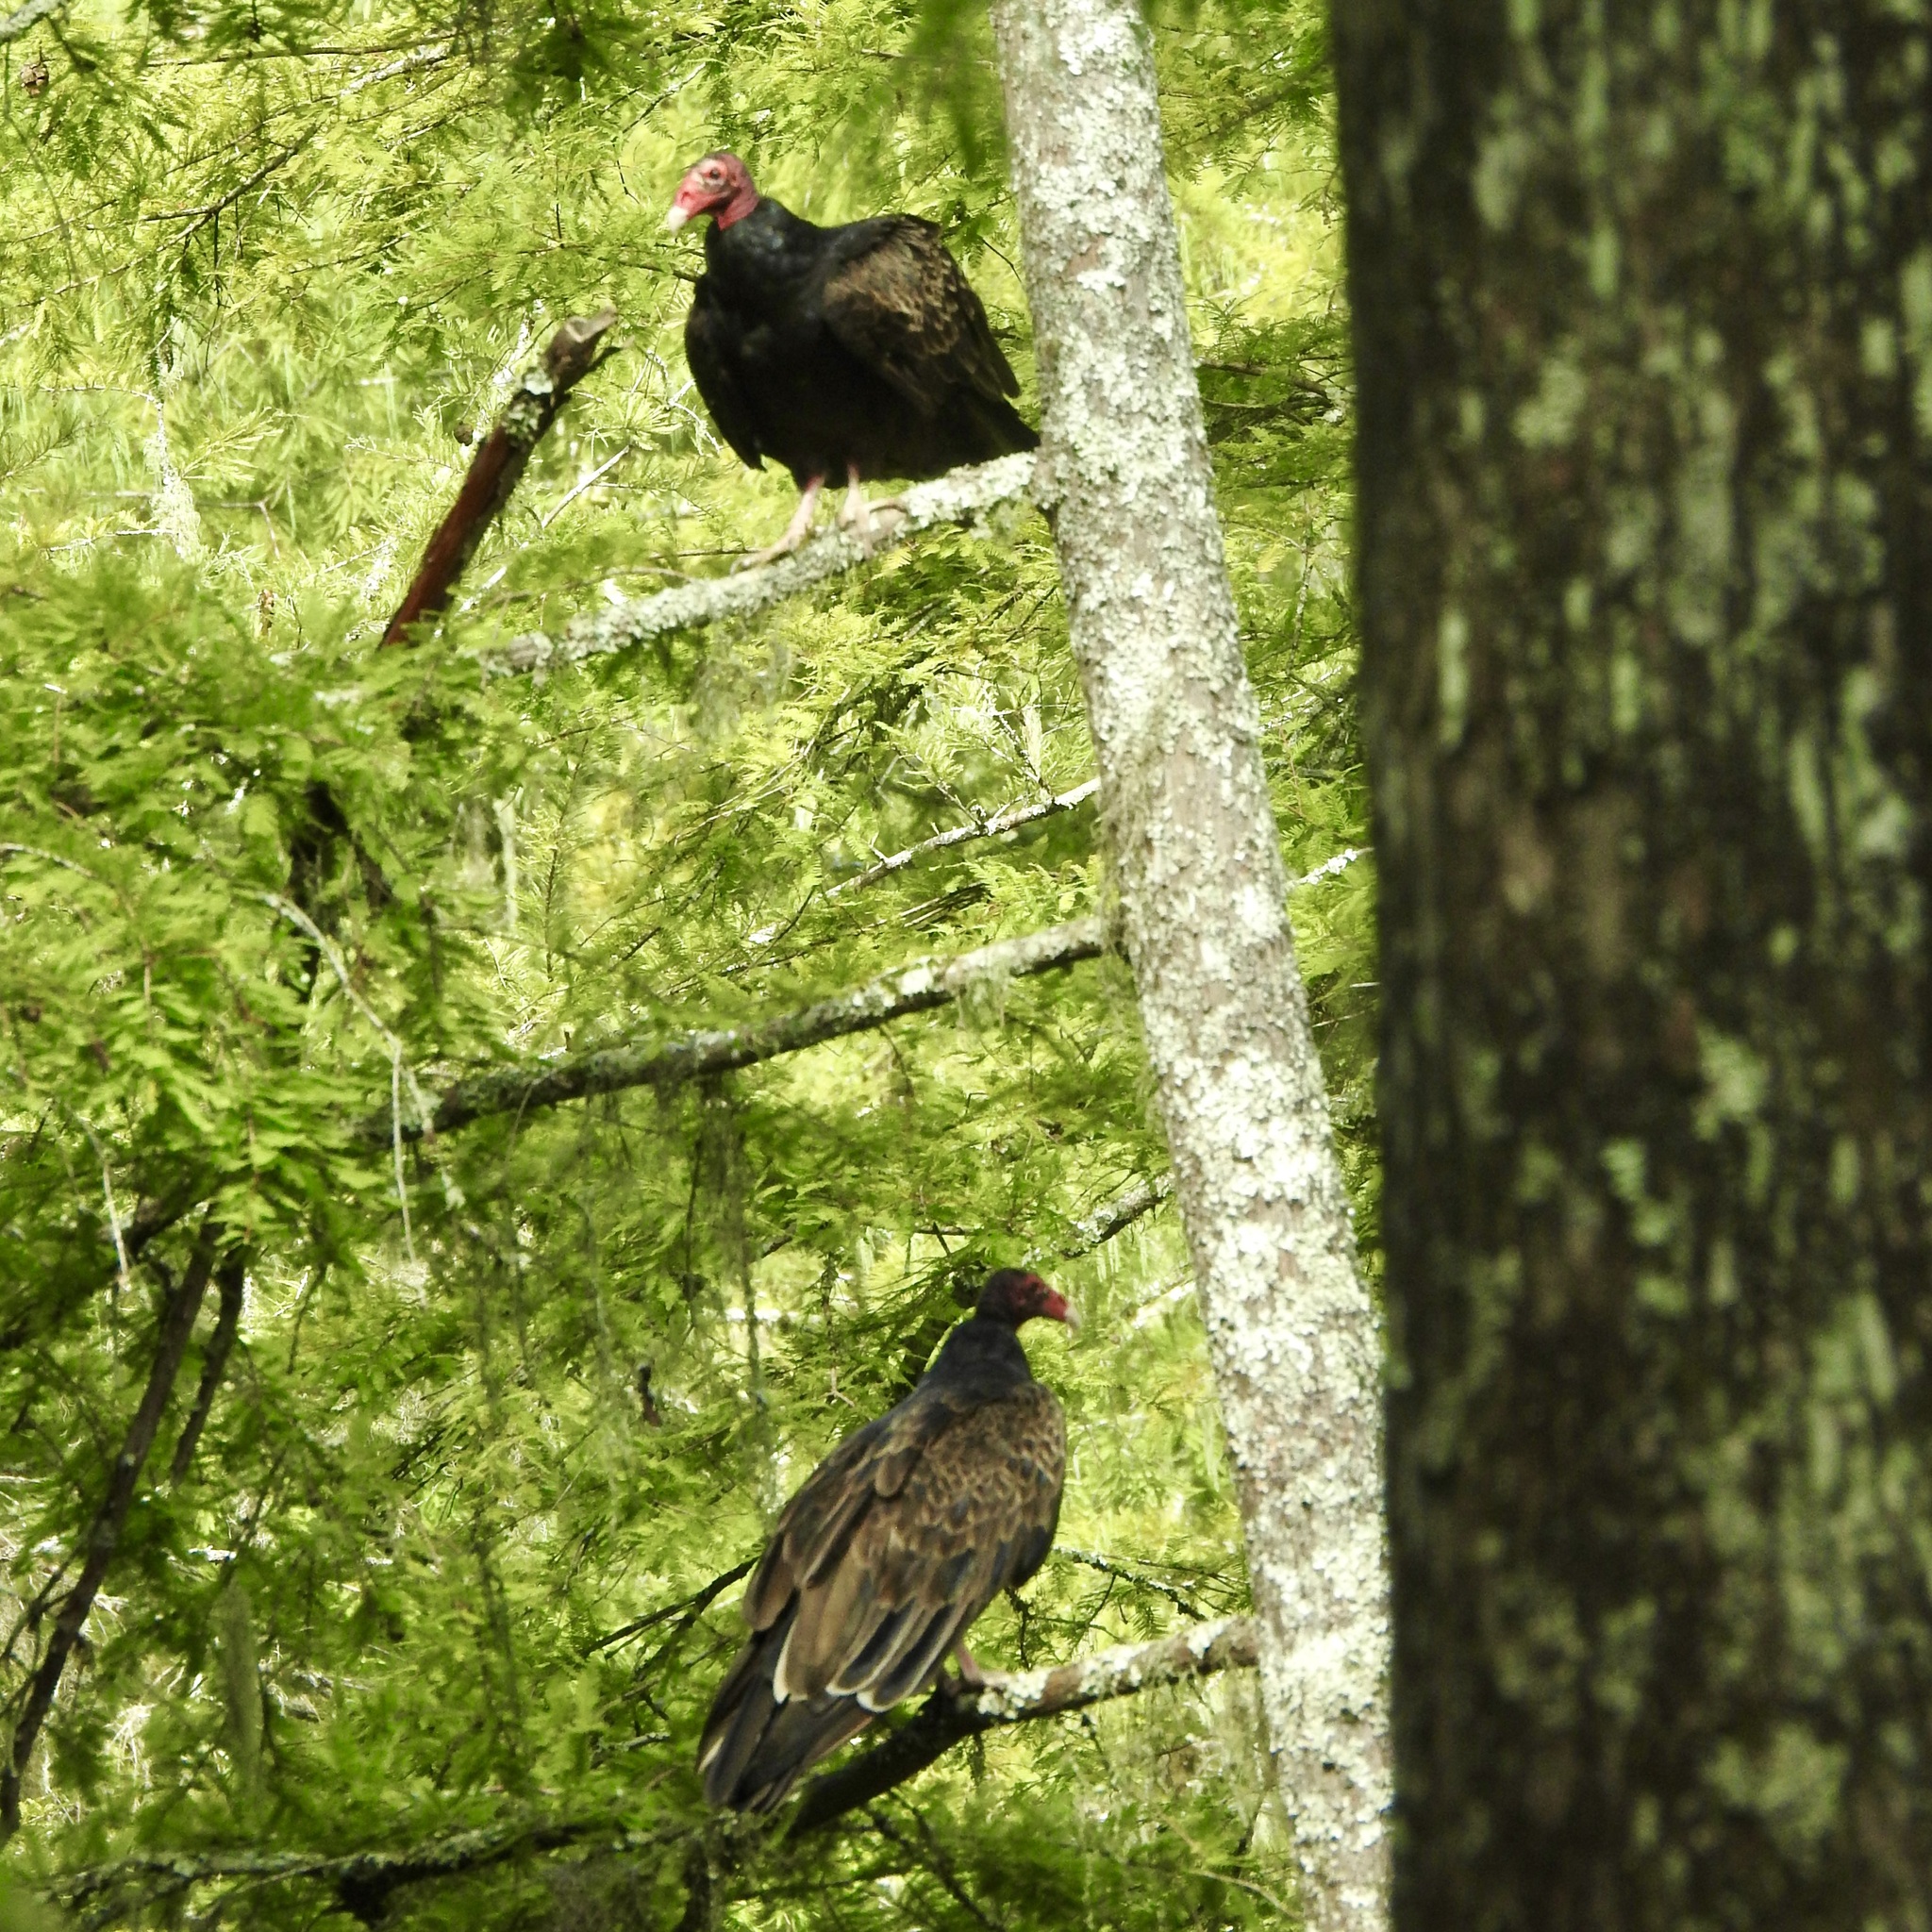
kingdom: Animalia
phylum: Chordata
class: Aves
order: Accipitriformes
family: Cathartidae
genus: Cathartes
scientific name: Cathartes aura
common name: Turkey vulture
